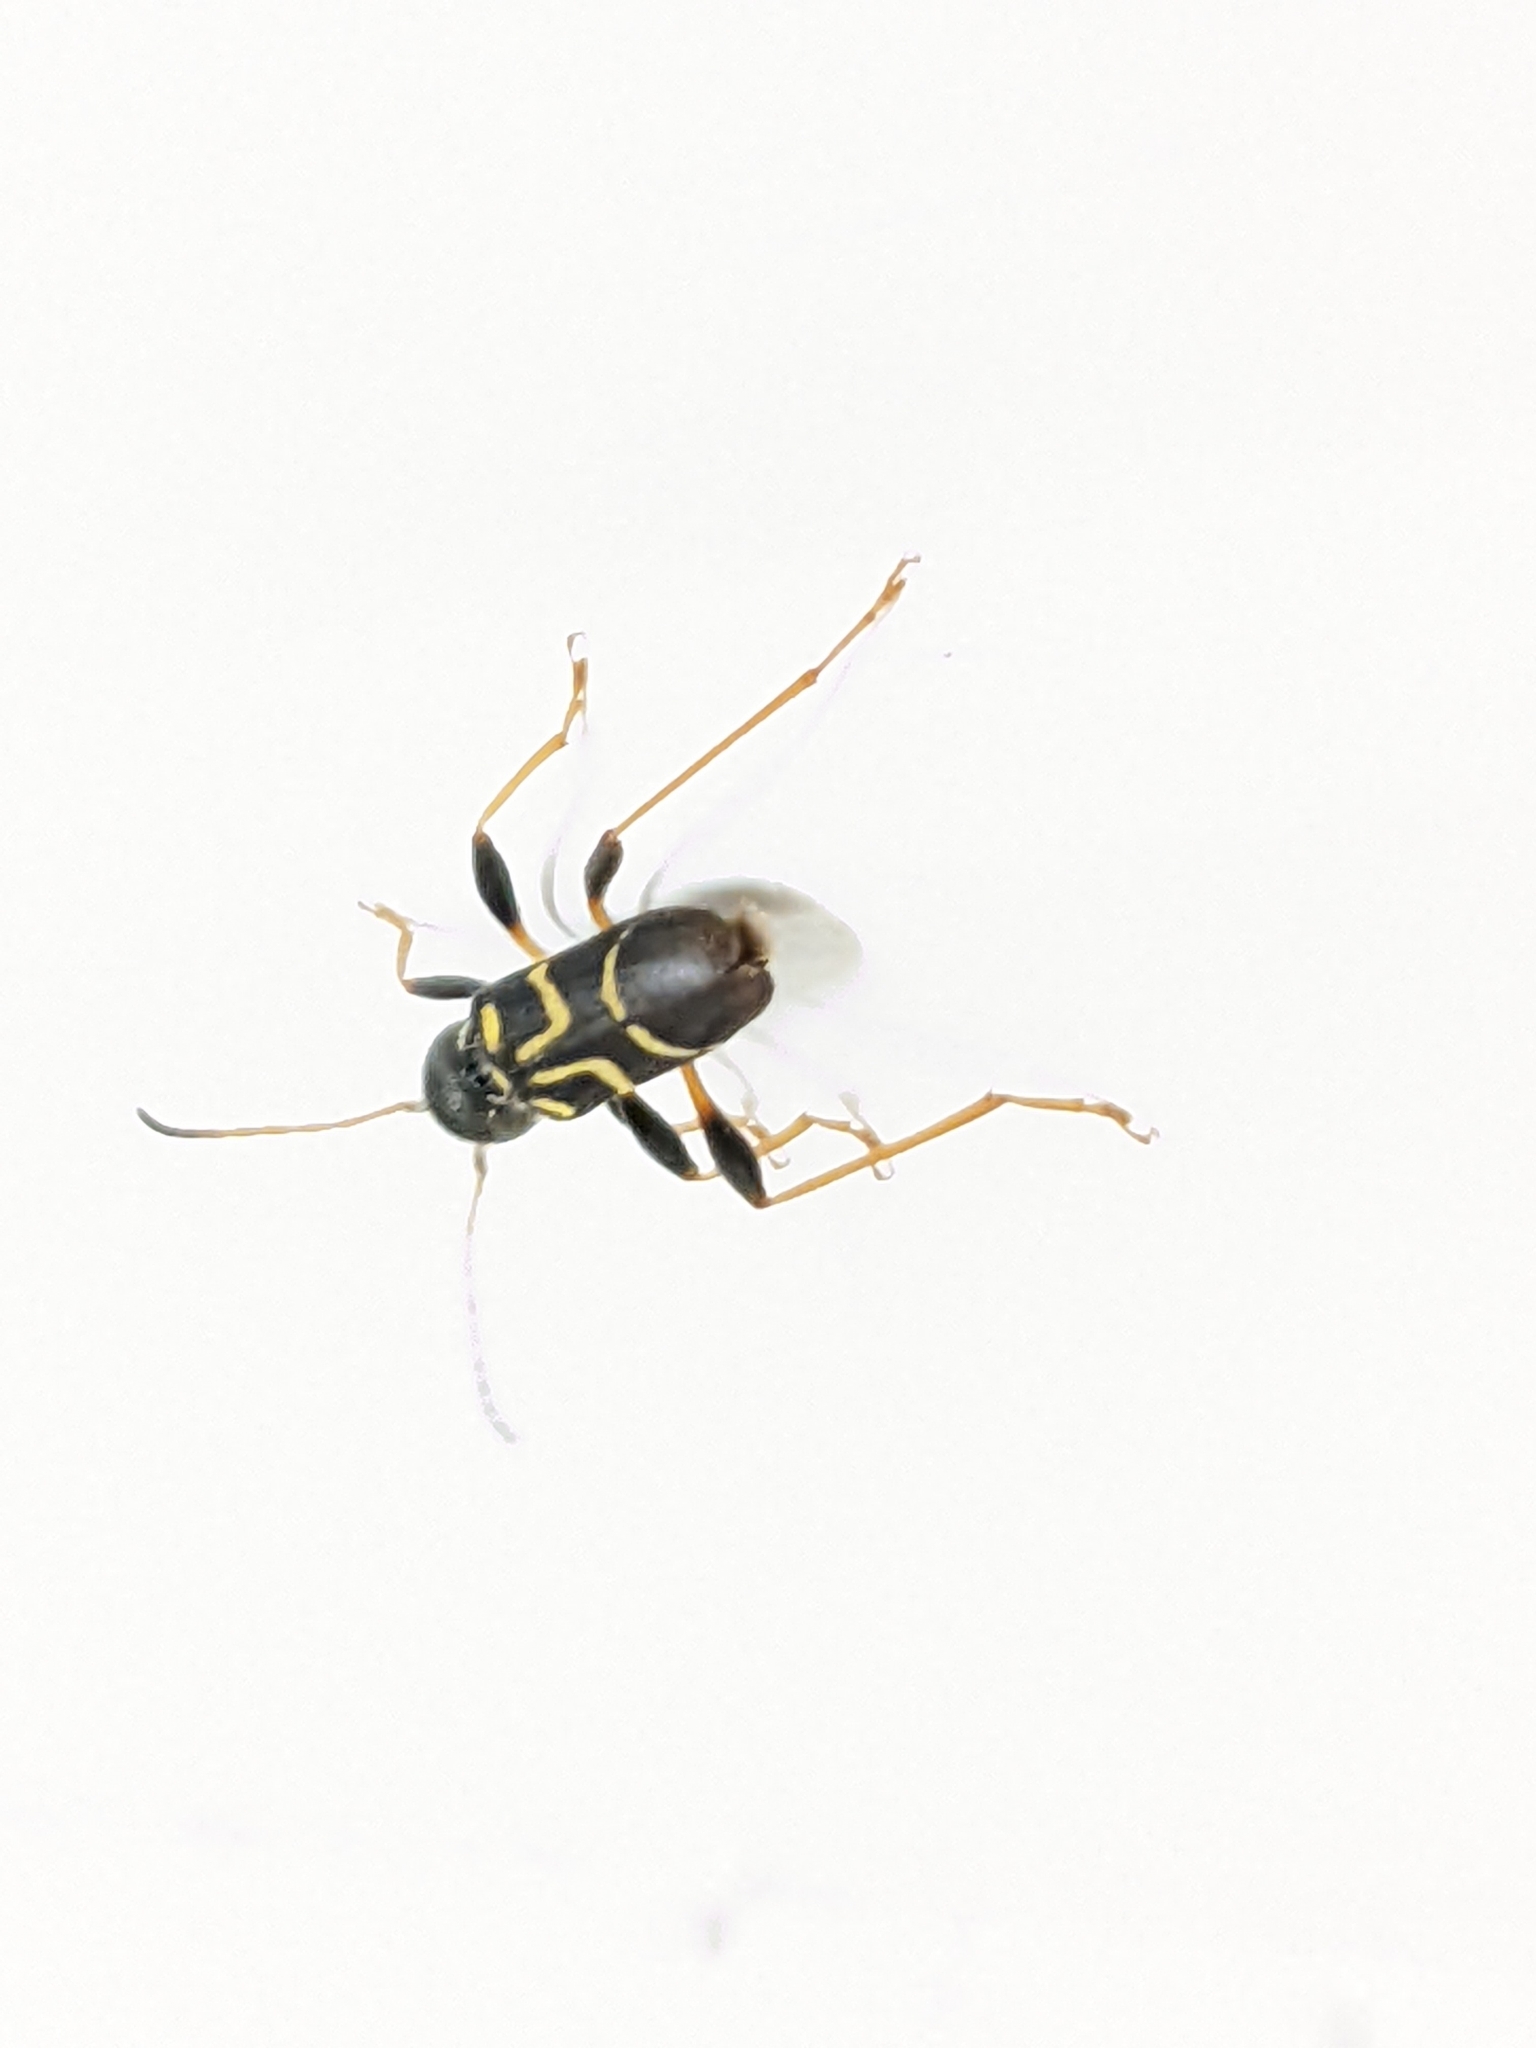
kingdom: Animalia
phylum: Arthropoda
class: Insecta
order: Coleoptera
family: Cerambycidae
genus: Clytus
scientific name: Clytus ruricola
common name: Round-necked longhorn beetle
